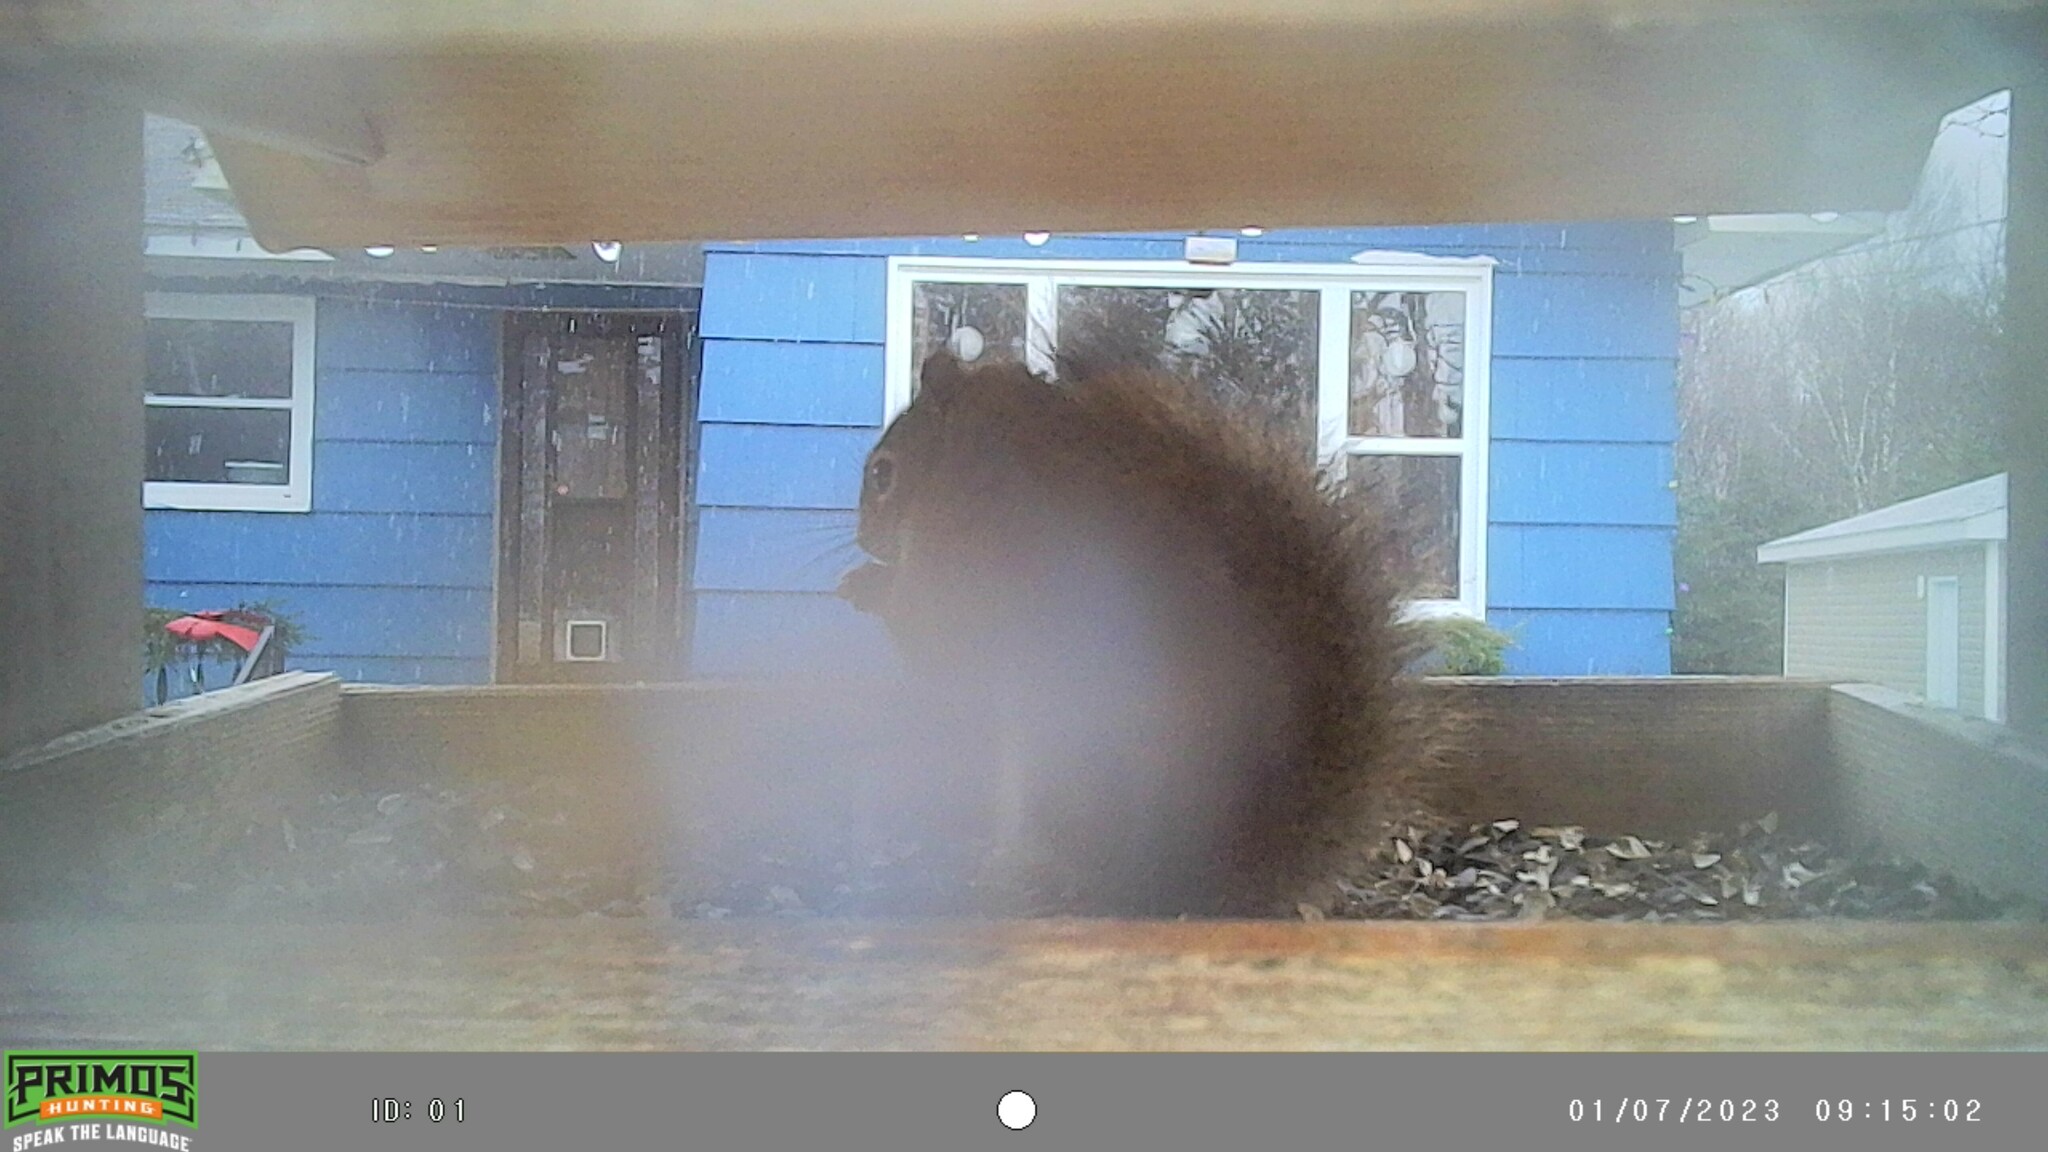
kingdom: Animalia
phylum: Chordata
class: Mammalia
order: Rodentia
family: Sciuridae
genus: Tamiasciurus
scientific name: Tamiasciurus hudsonicus
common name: Red squirrel
